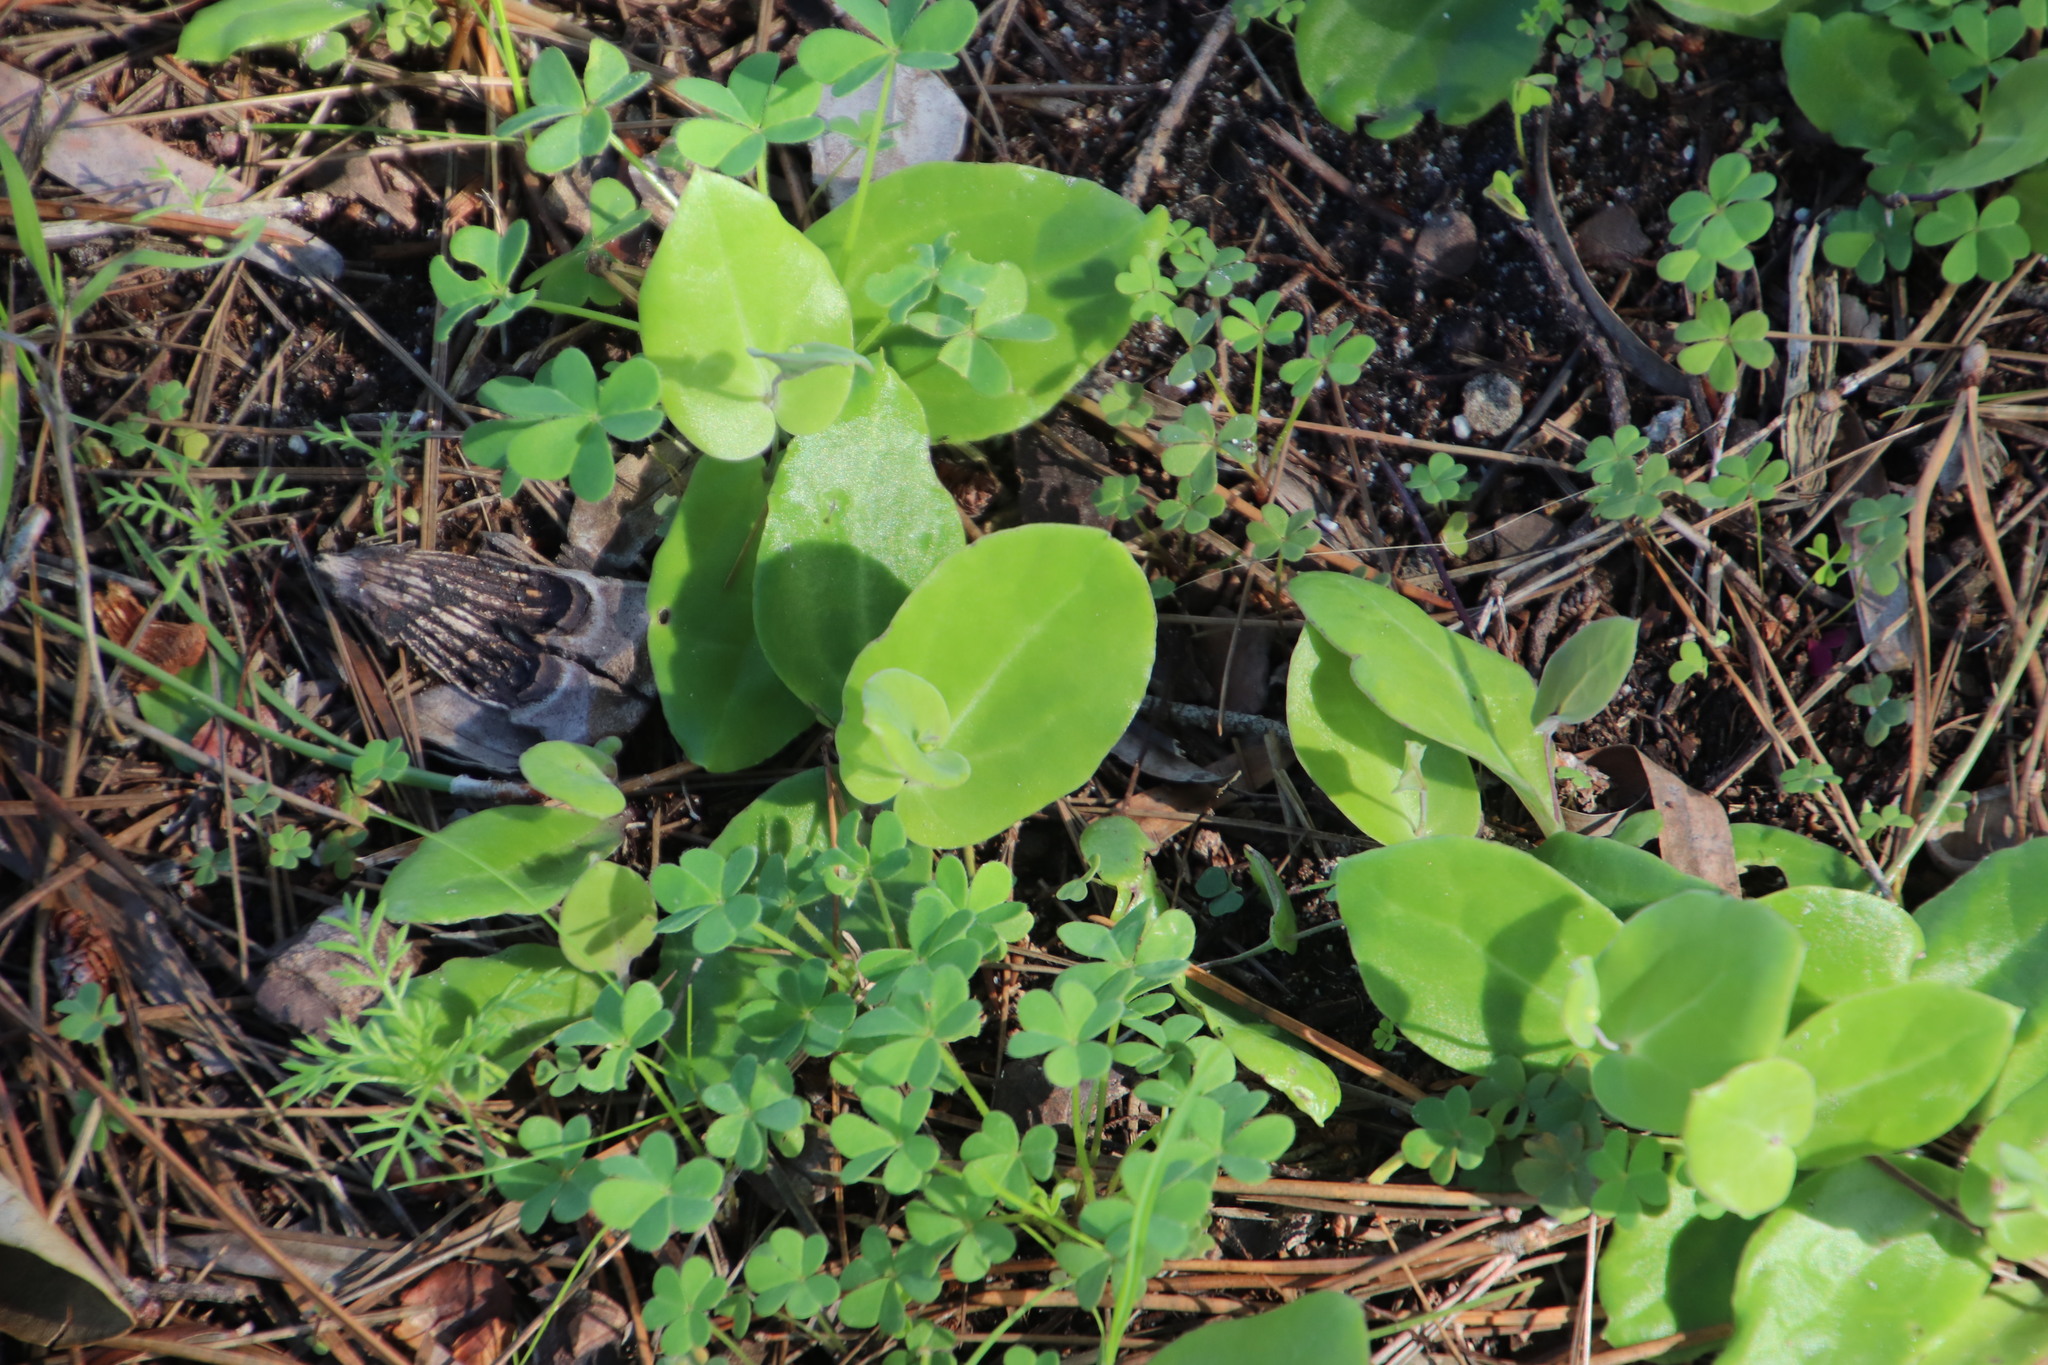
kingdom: Plantae
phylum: Tracheophyta
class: Magnoliopsida
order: Asterales
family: Asteraceae
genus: Othonna
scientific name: Othonna undulosa
